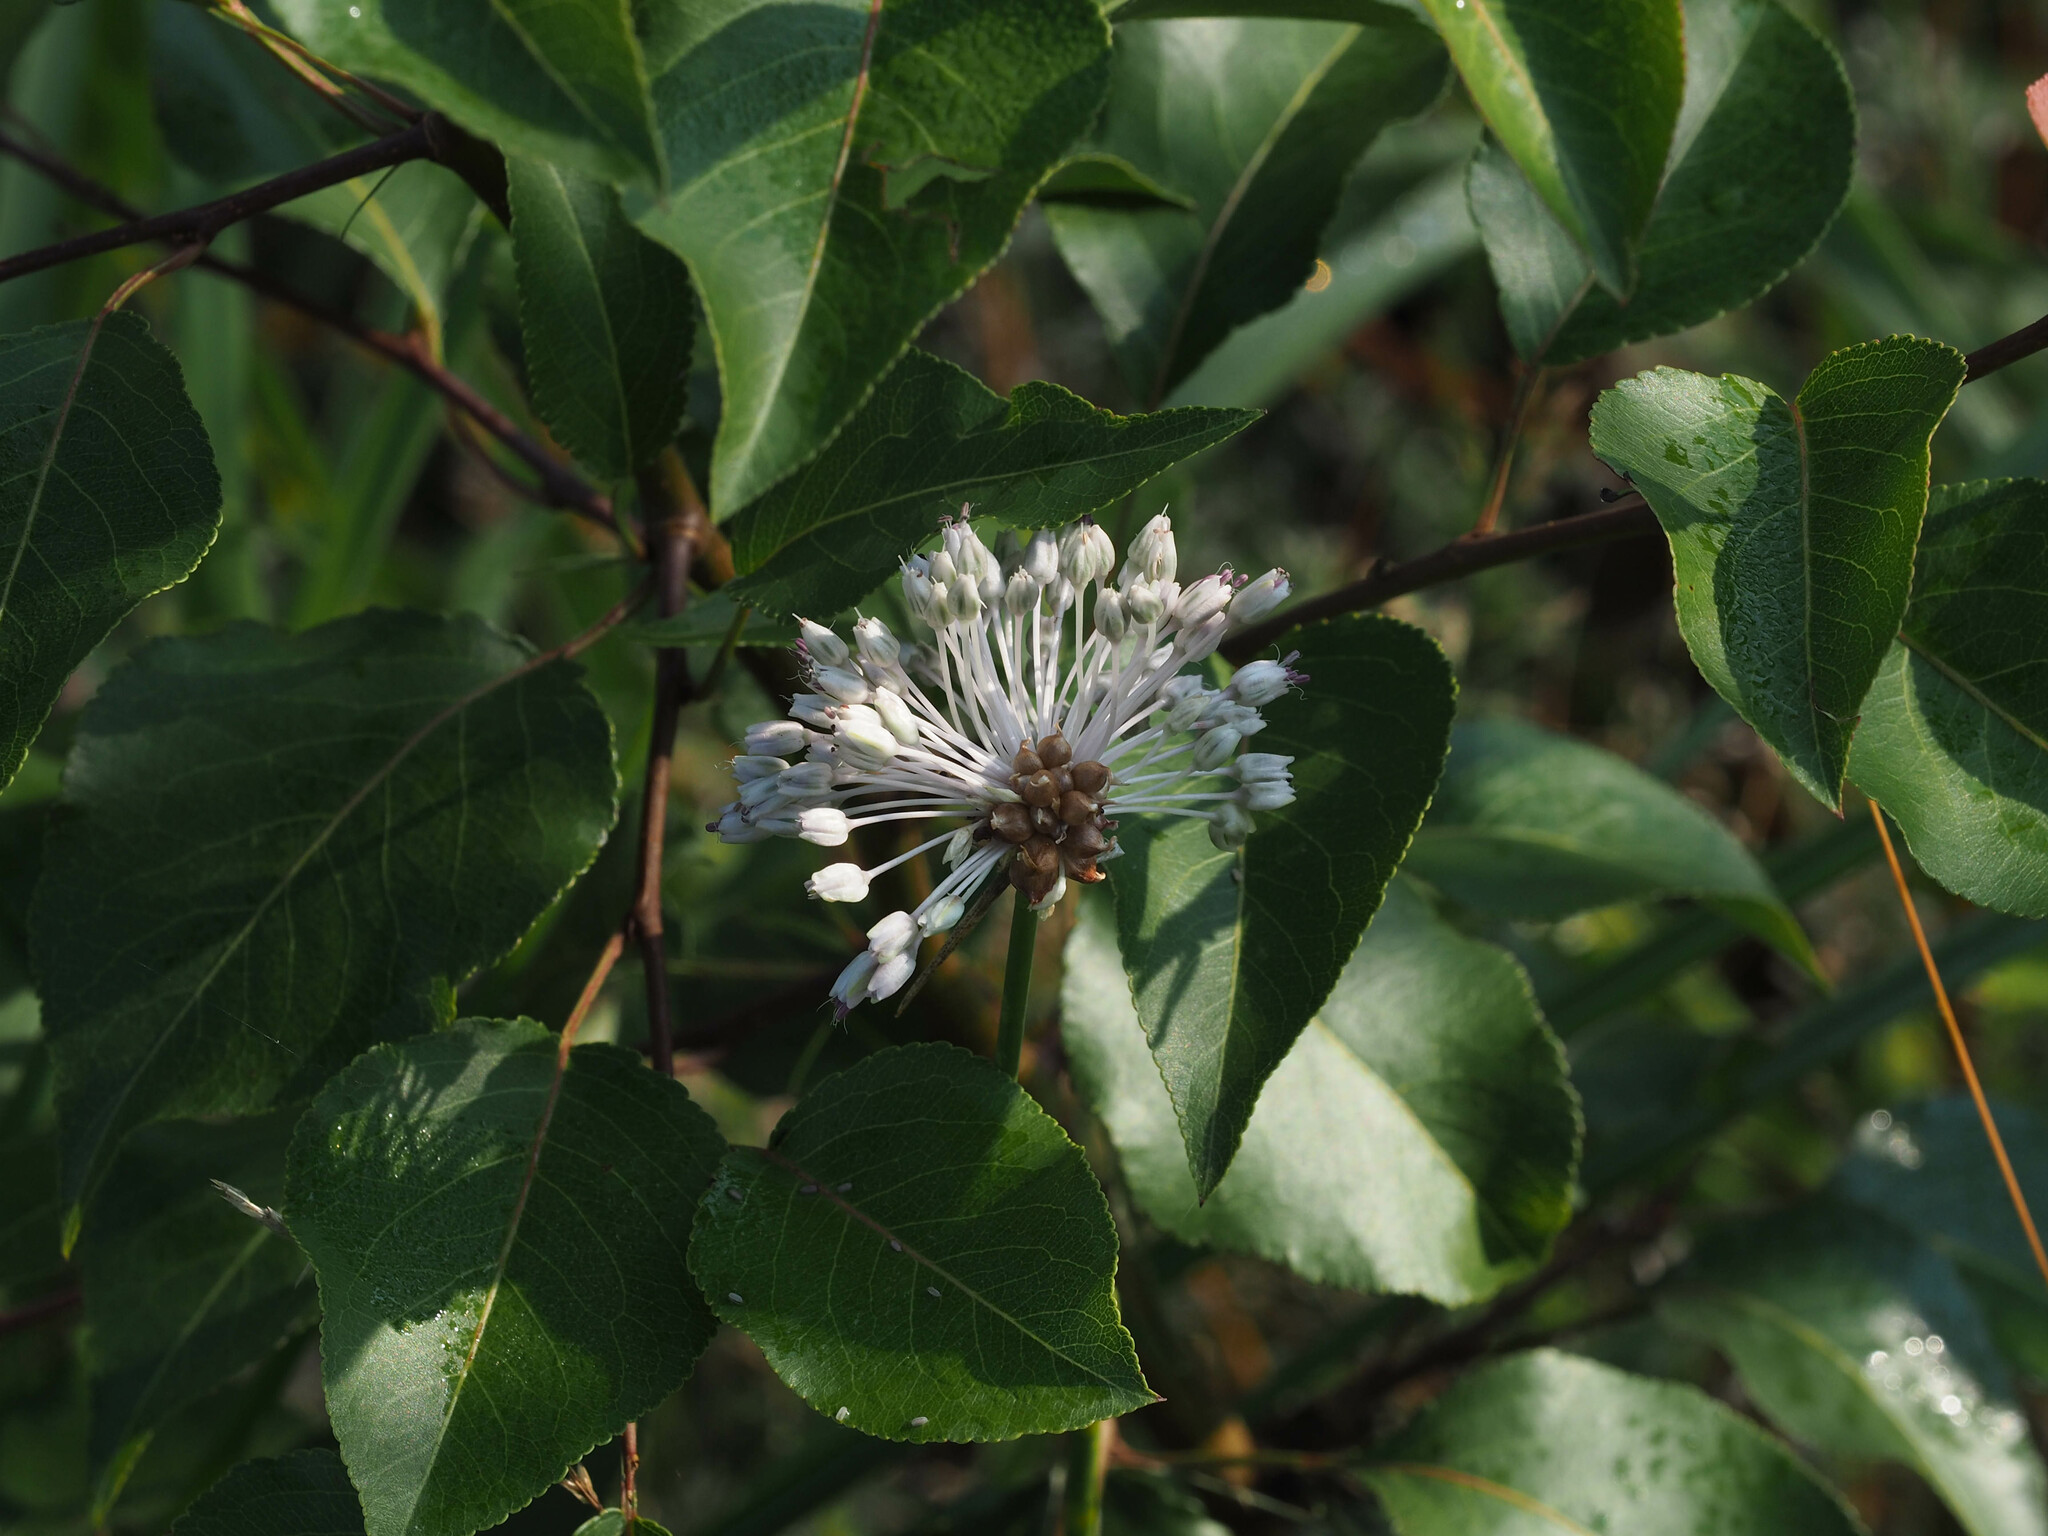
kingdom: Plantae
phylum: Tracheophyta
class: Liliopsida
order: Asparagales
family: Amaryllidaceae
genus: Allium
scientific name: Allium vineale
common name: Crow garlic
